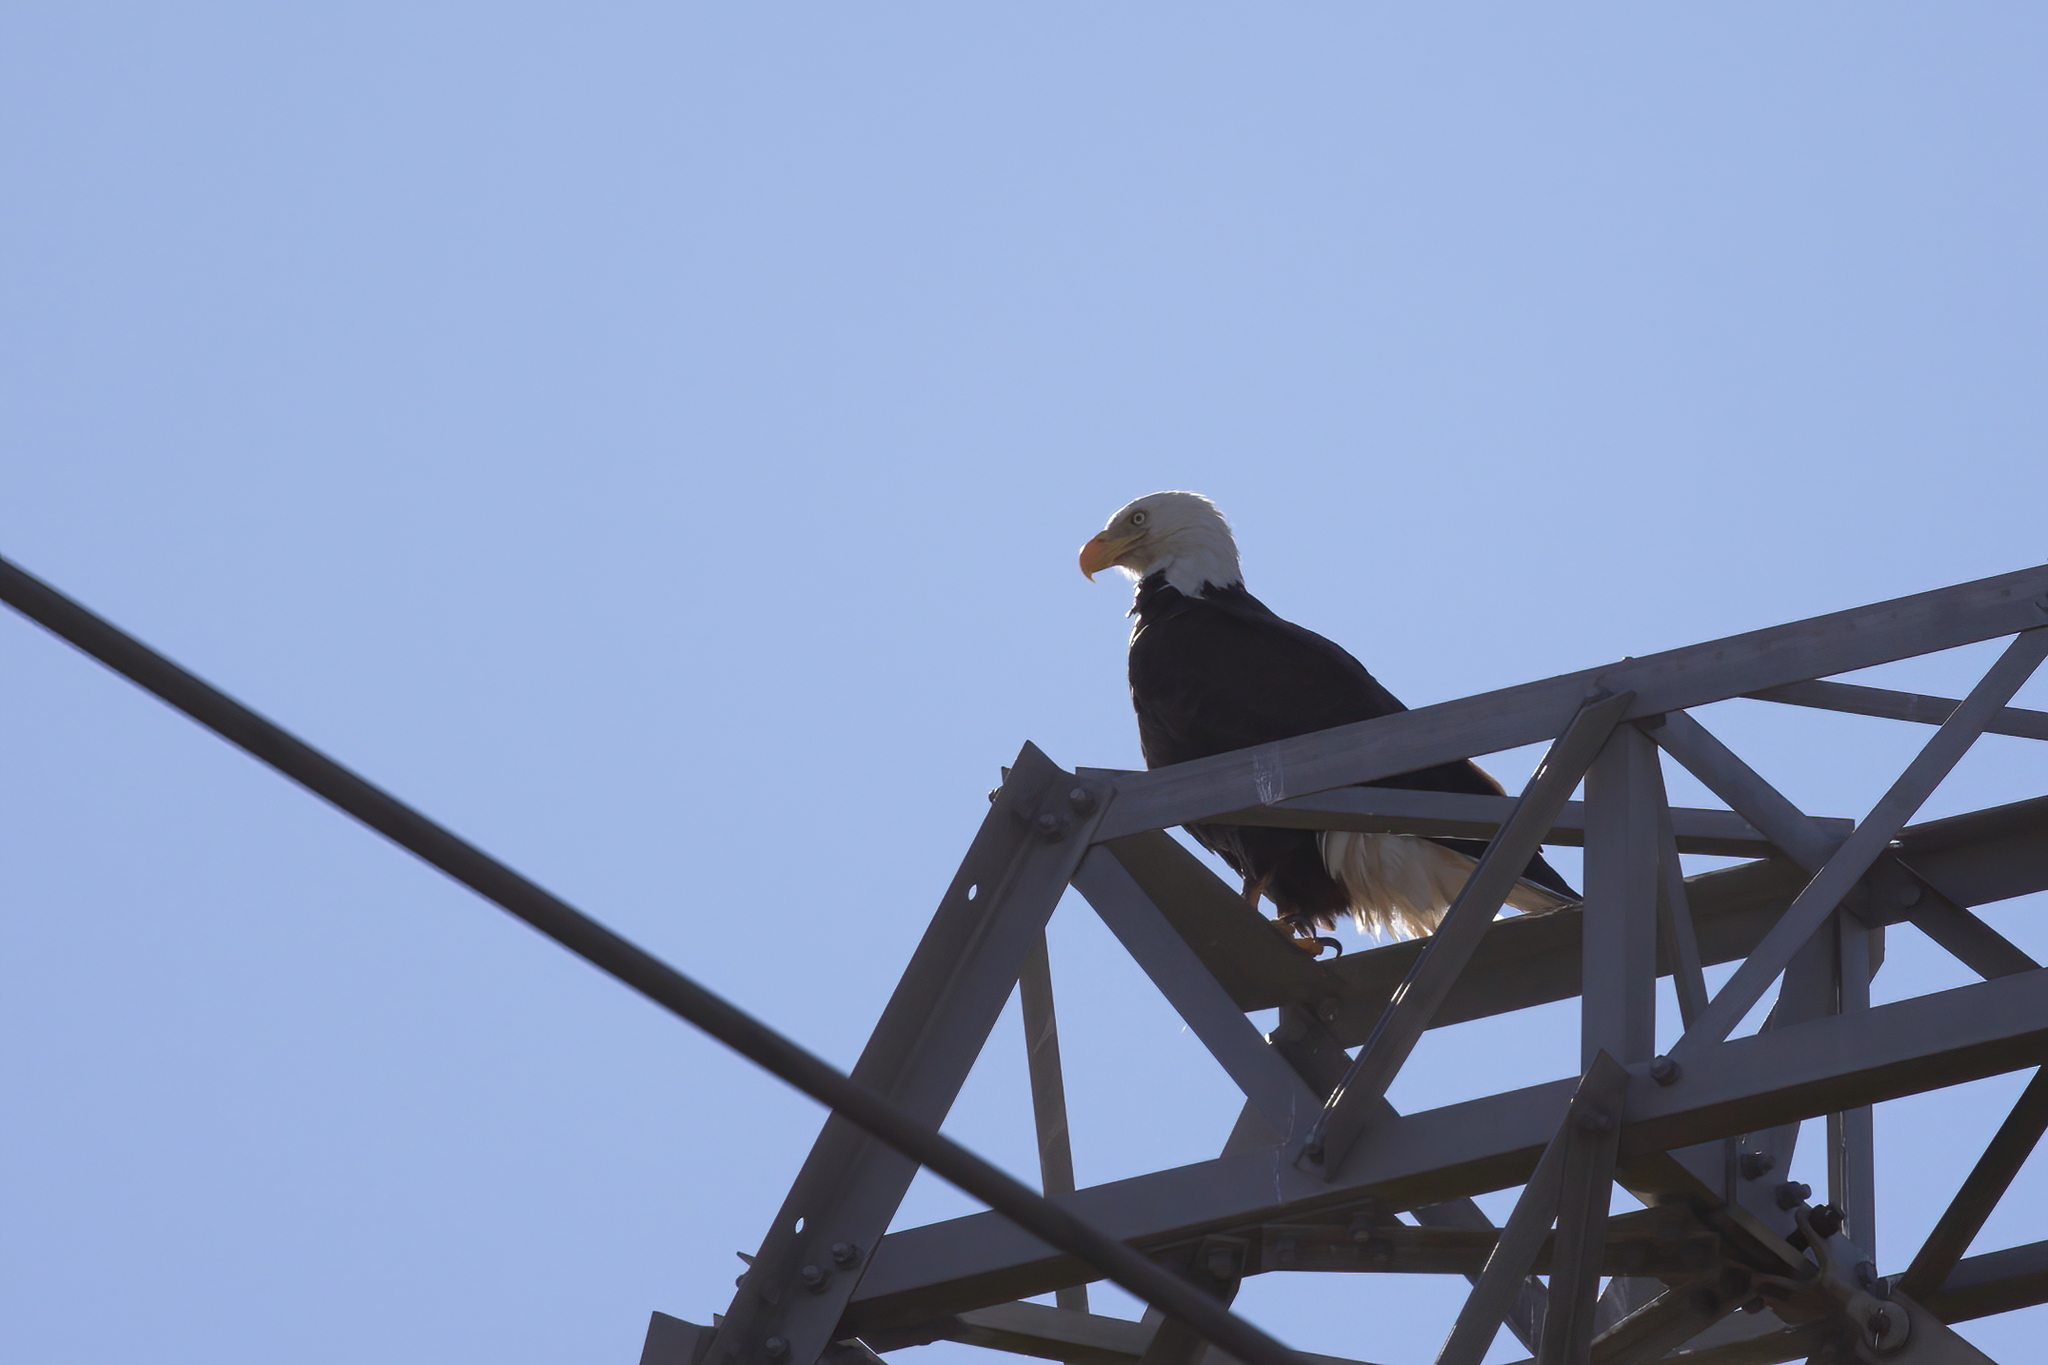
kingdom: Animalia
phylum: Chordata
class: Aves
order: Accipitriformes
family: Accipitridae
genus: Haliaeetus
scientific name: Haliaeetus leucocephalus
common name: Bald eagle
